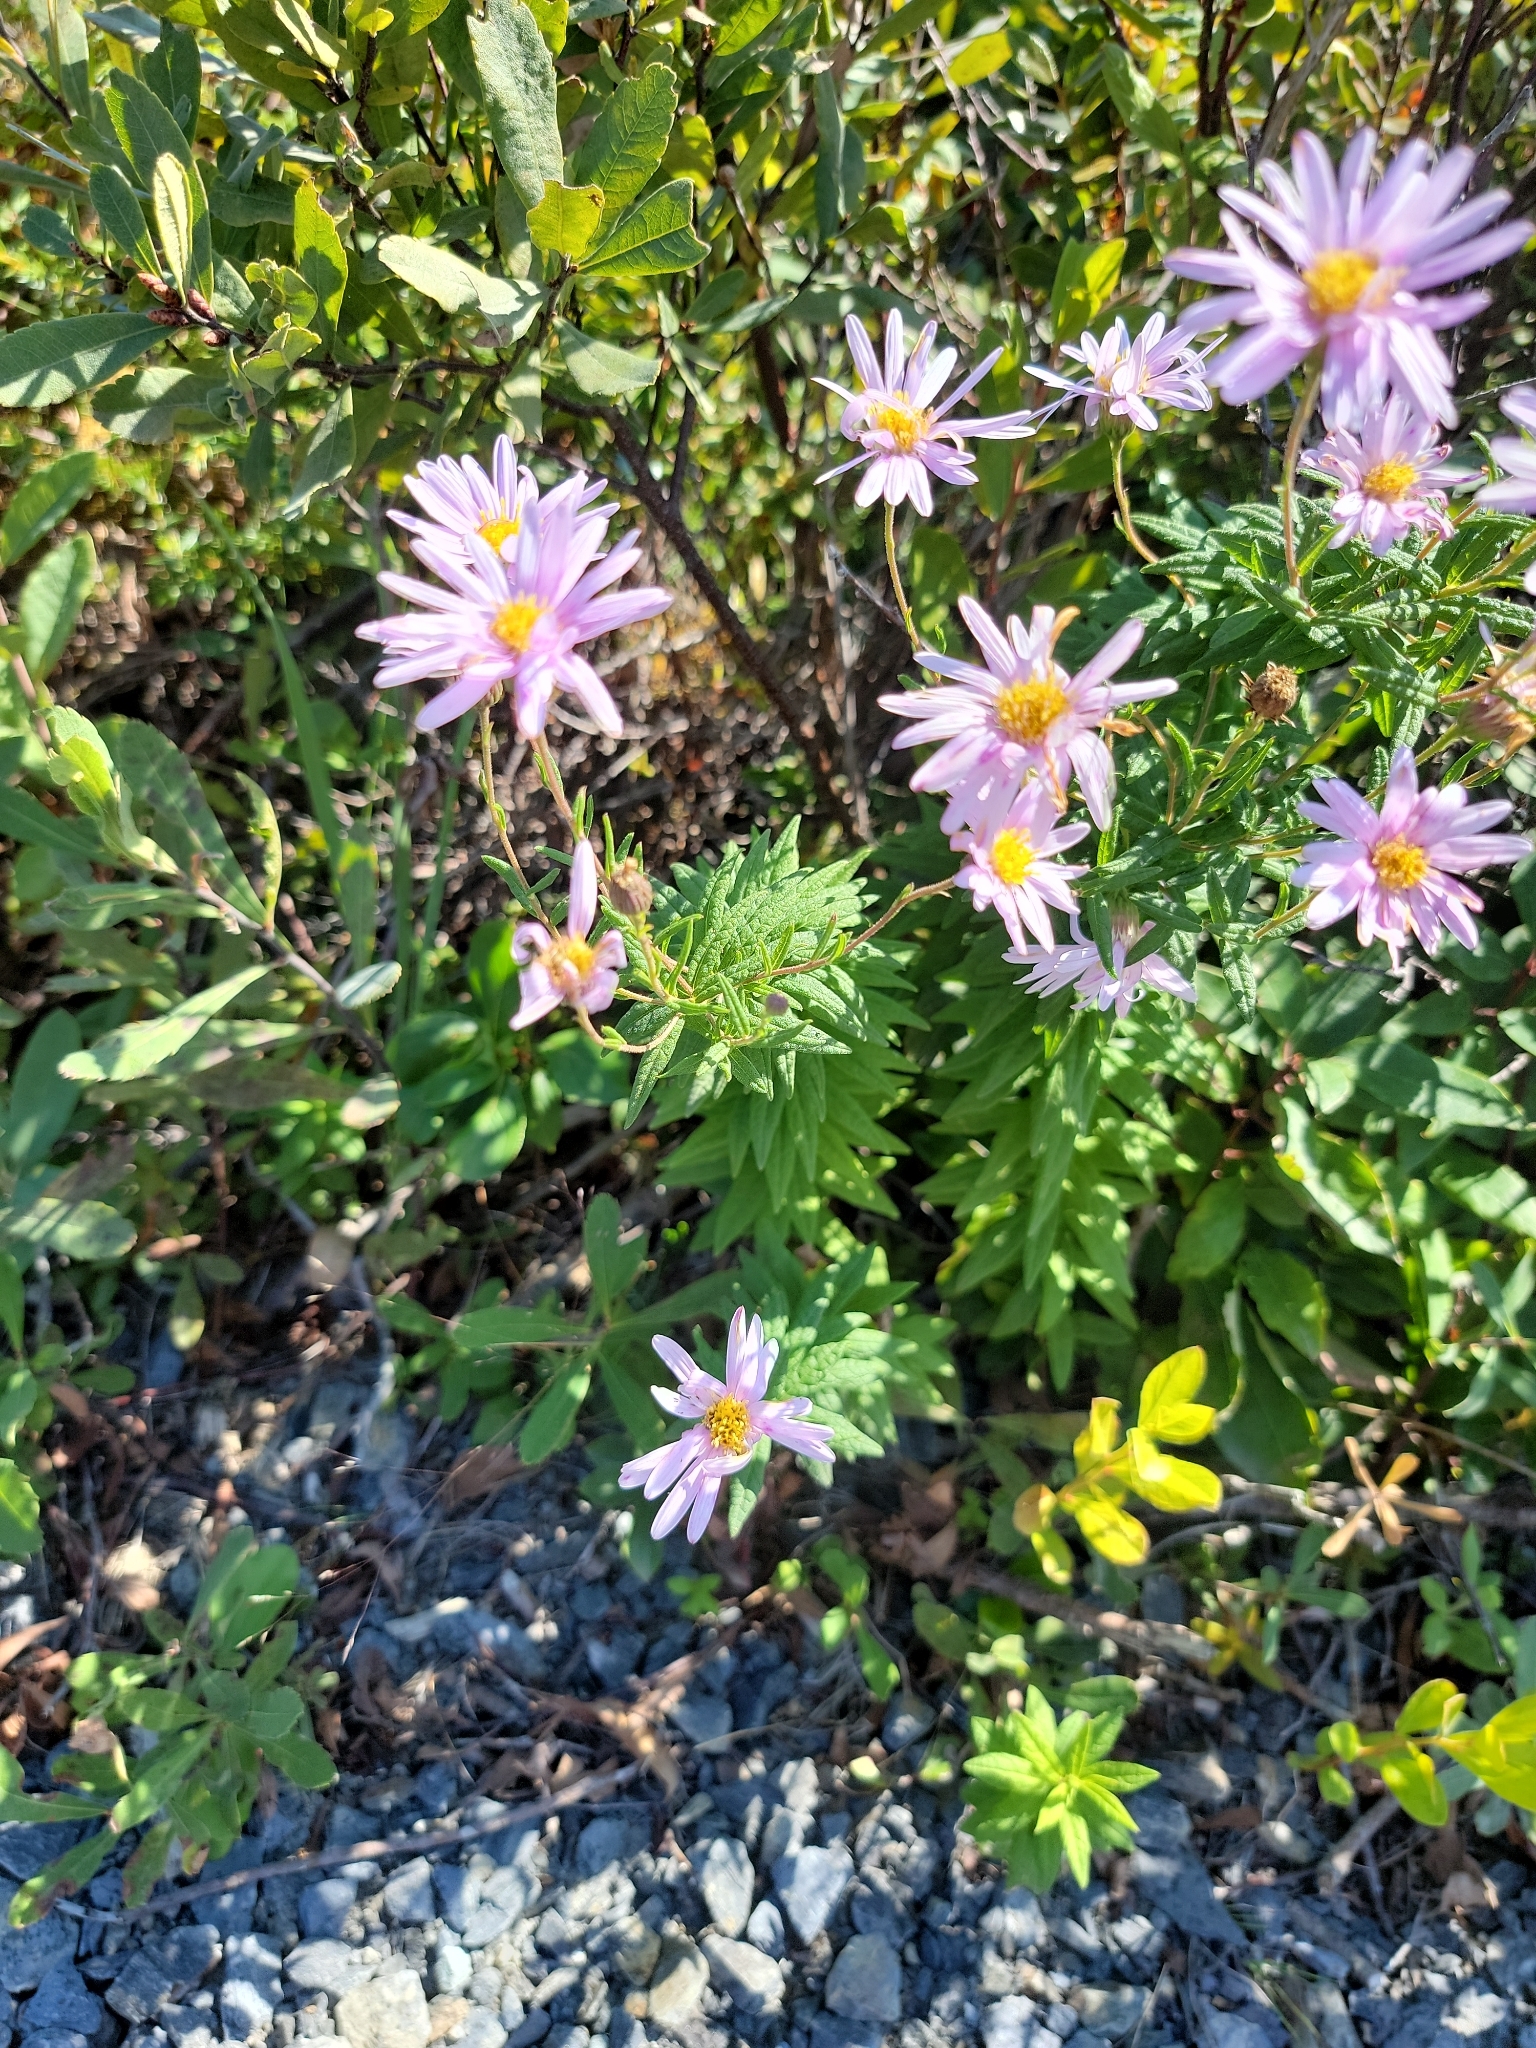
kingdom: Plantae
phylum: Tracheophyta
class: Magnoliopsida
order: Asterales
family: Asteraceae
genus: Oclemena
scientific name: Oclemena nemoralis
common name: Bog aster
